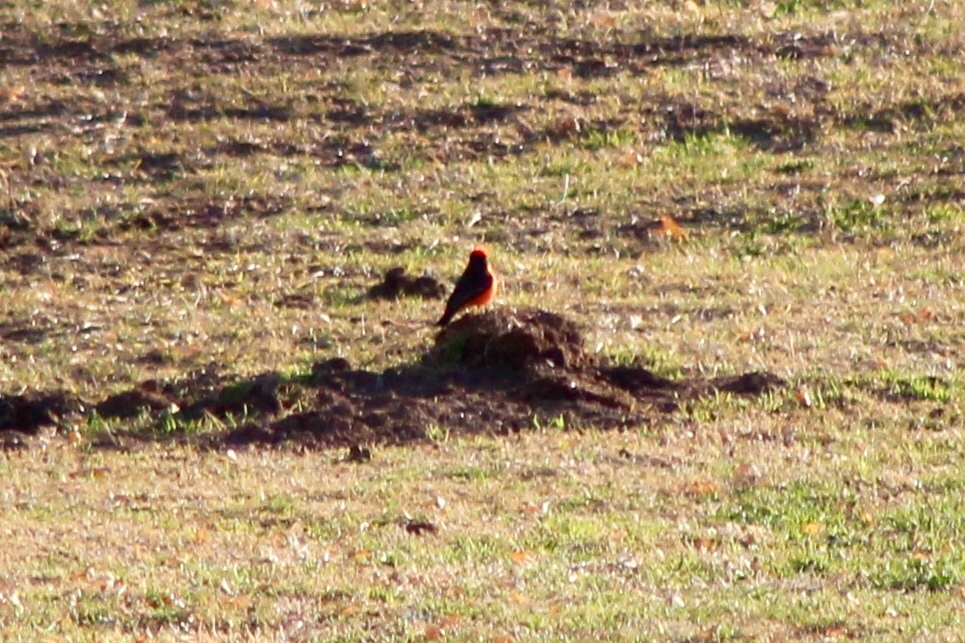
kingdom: Animalia
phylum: Chordata
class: Aves
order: Passeriformes
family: Tyrannidae
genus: Pyrocephalus
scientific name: Pyrocephalus rubinus
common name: Vermilion flycatcher
